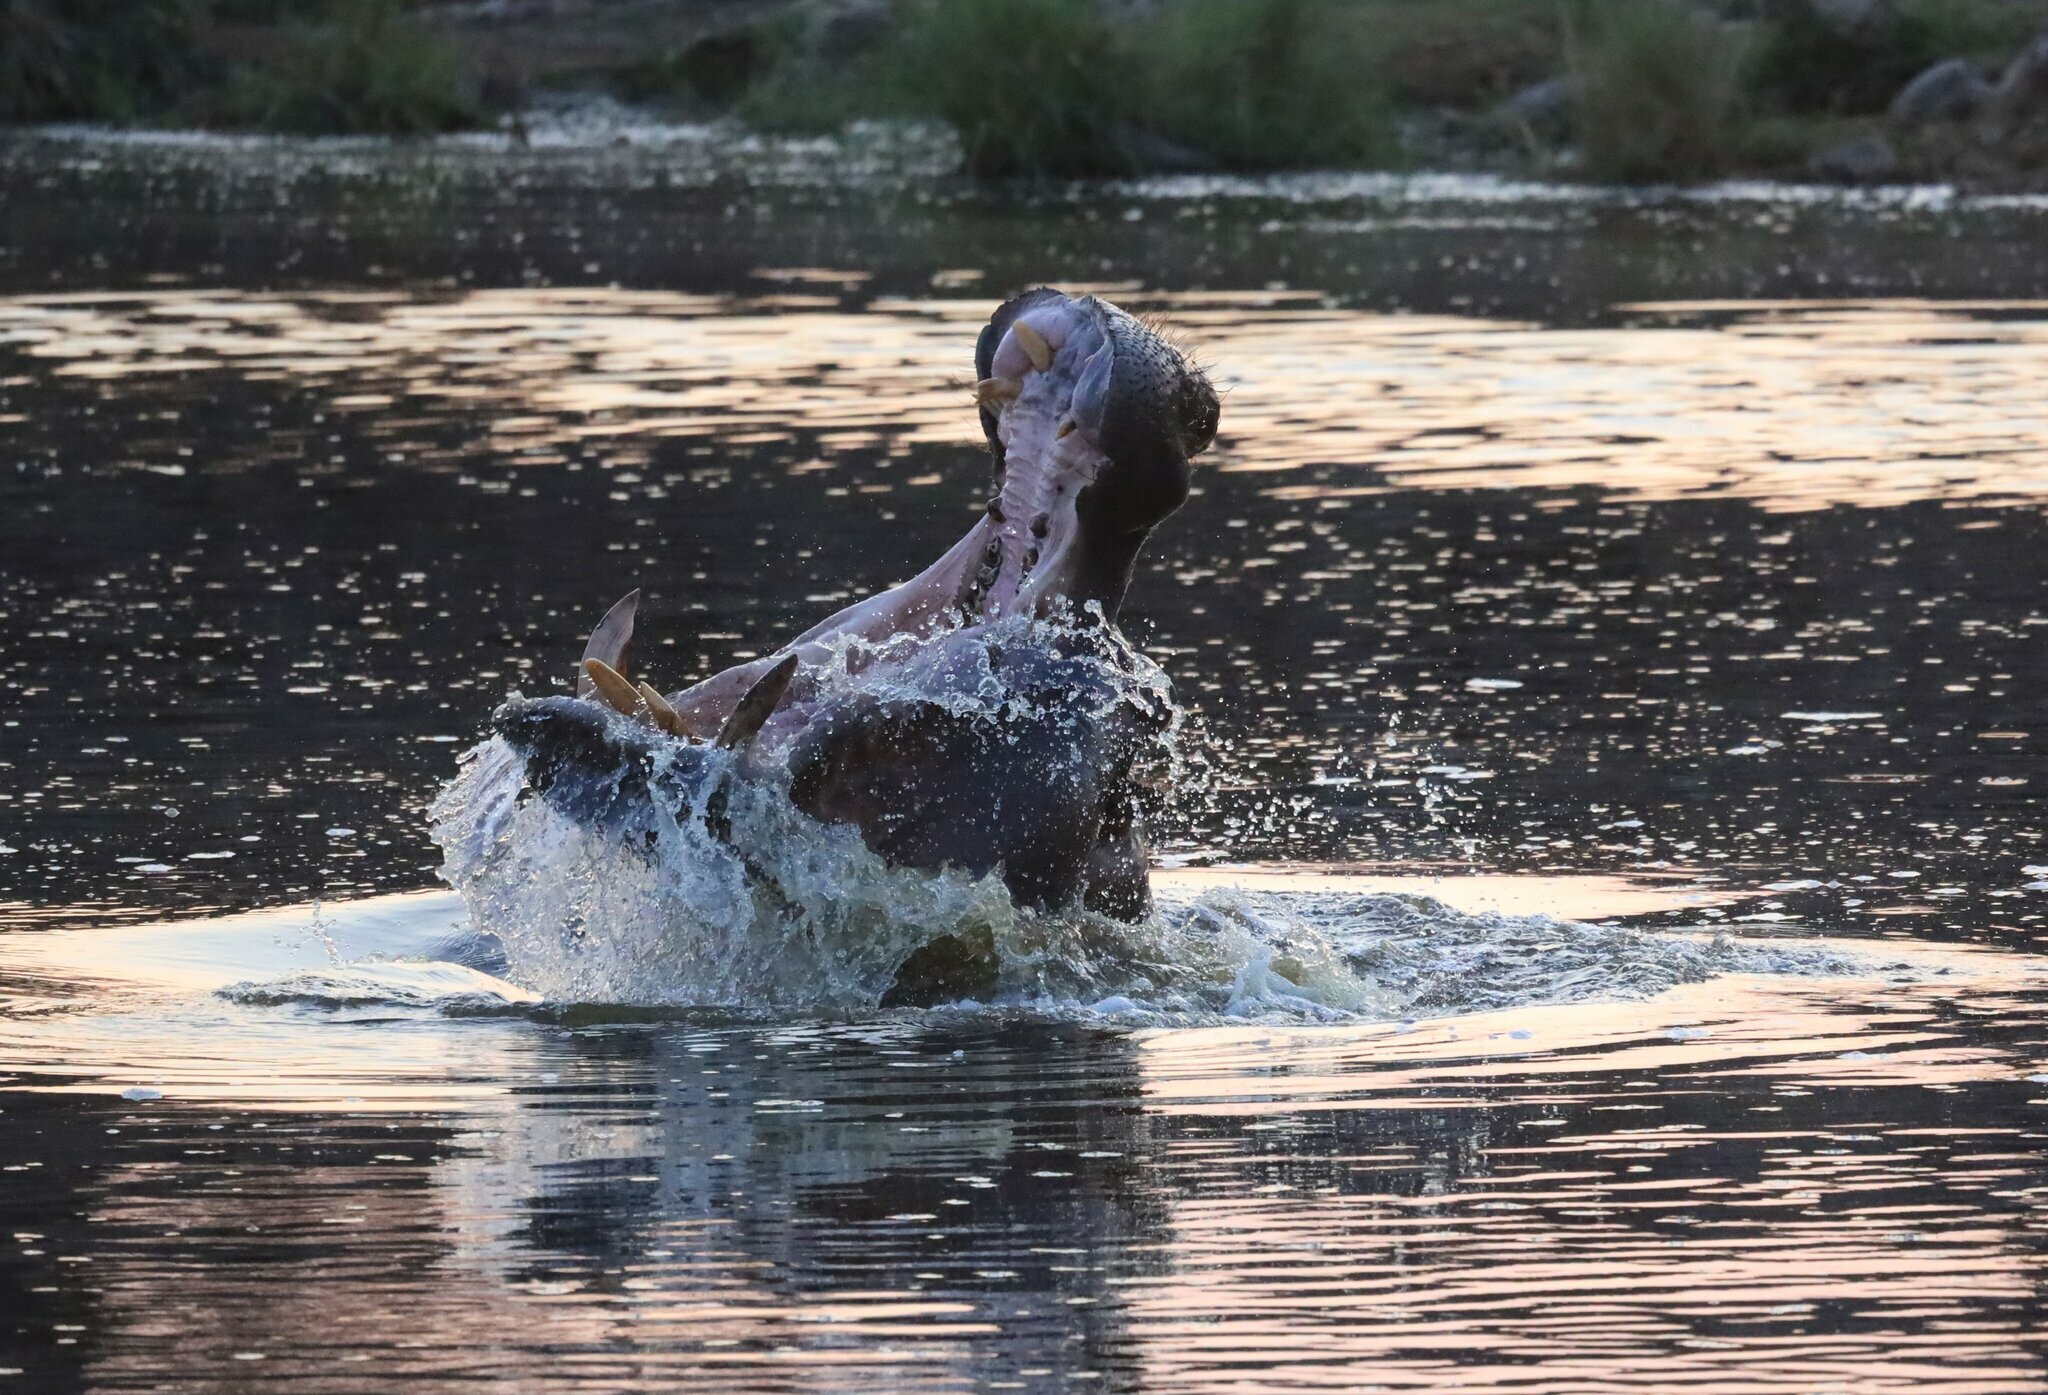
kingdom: Animalia
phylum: Chordata
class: Mammalia
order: Artiodactyla
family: Hippopotamidae
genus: Hippopotamus
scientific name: Hippopotamus amphibius
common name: Common hippopotamus
